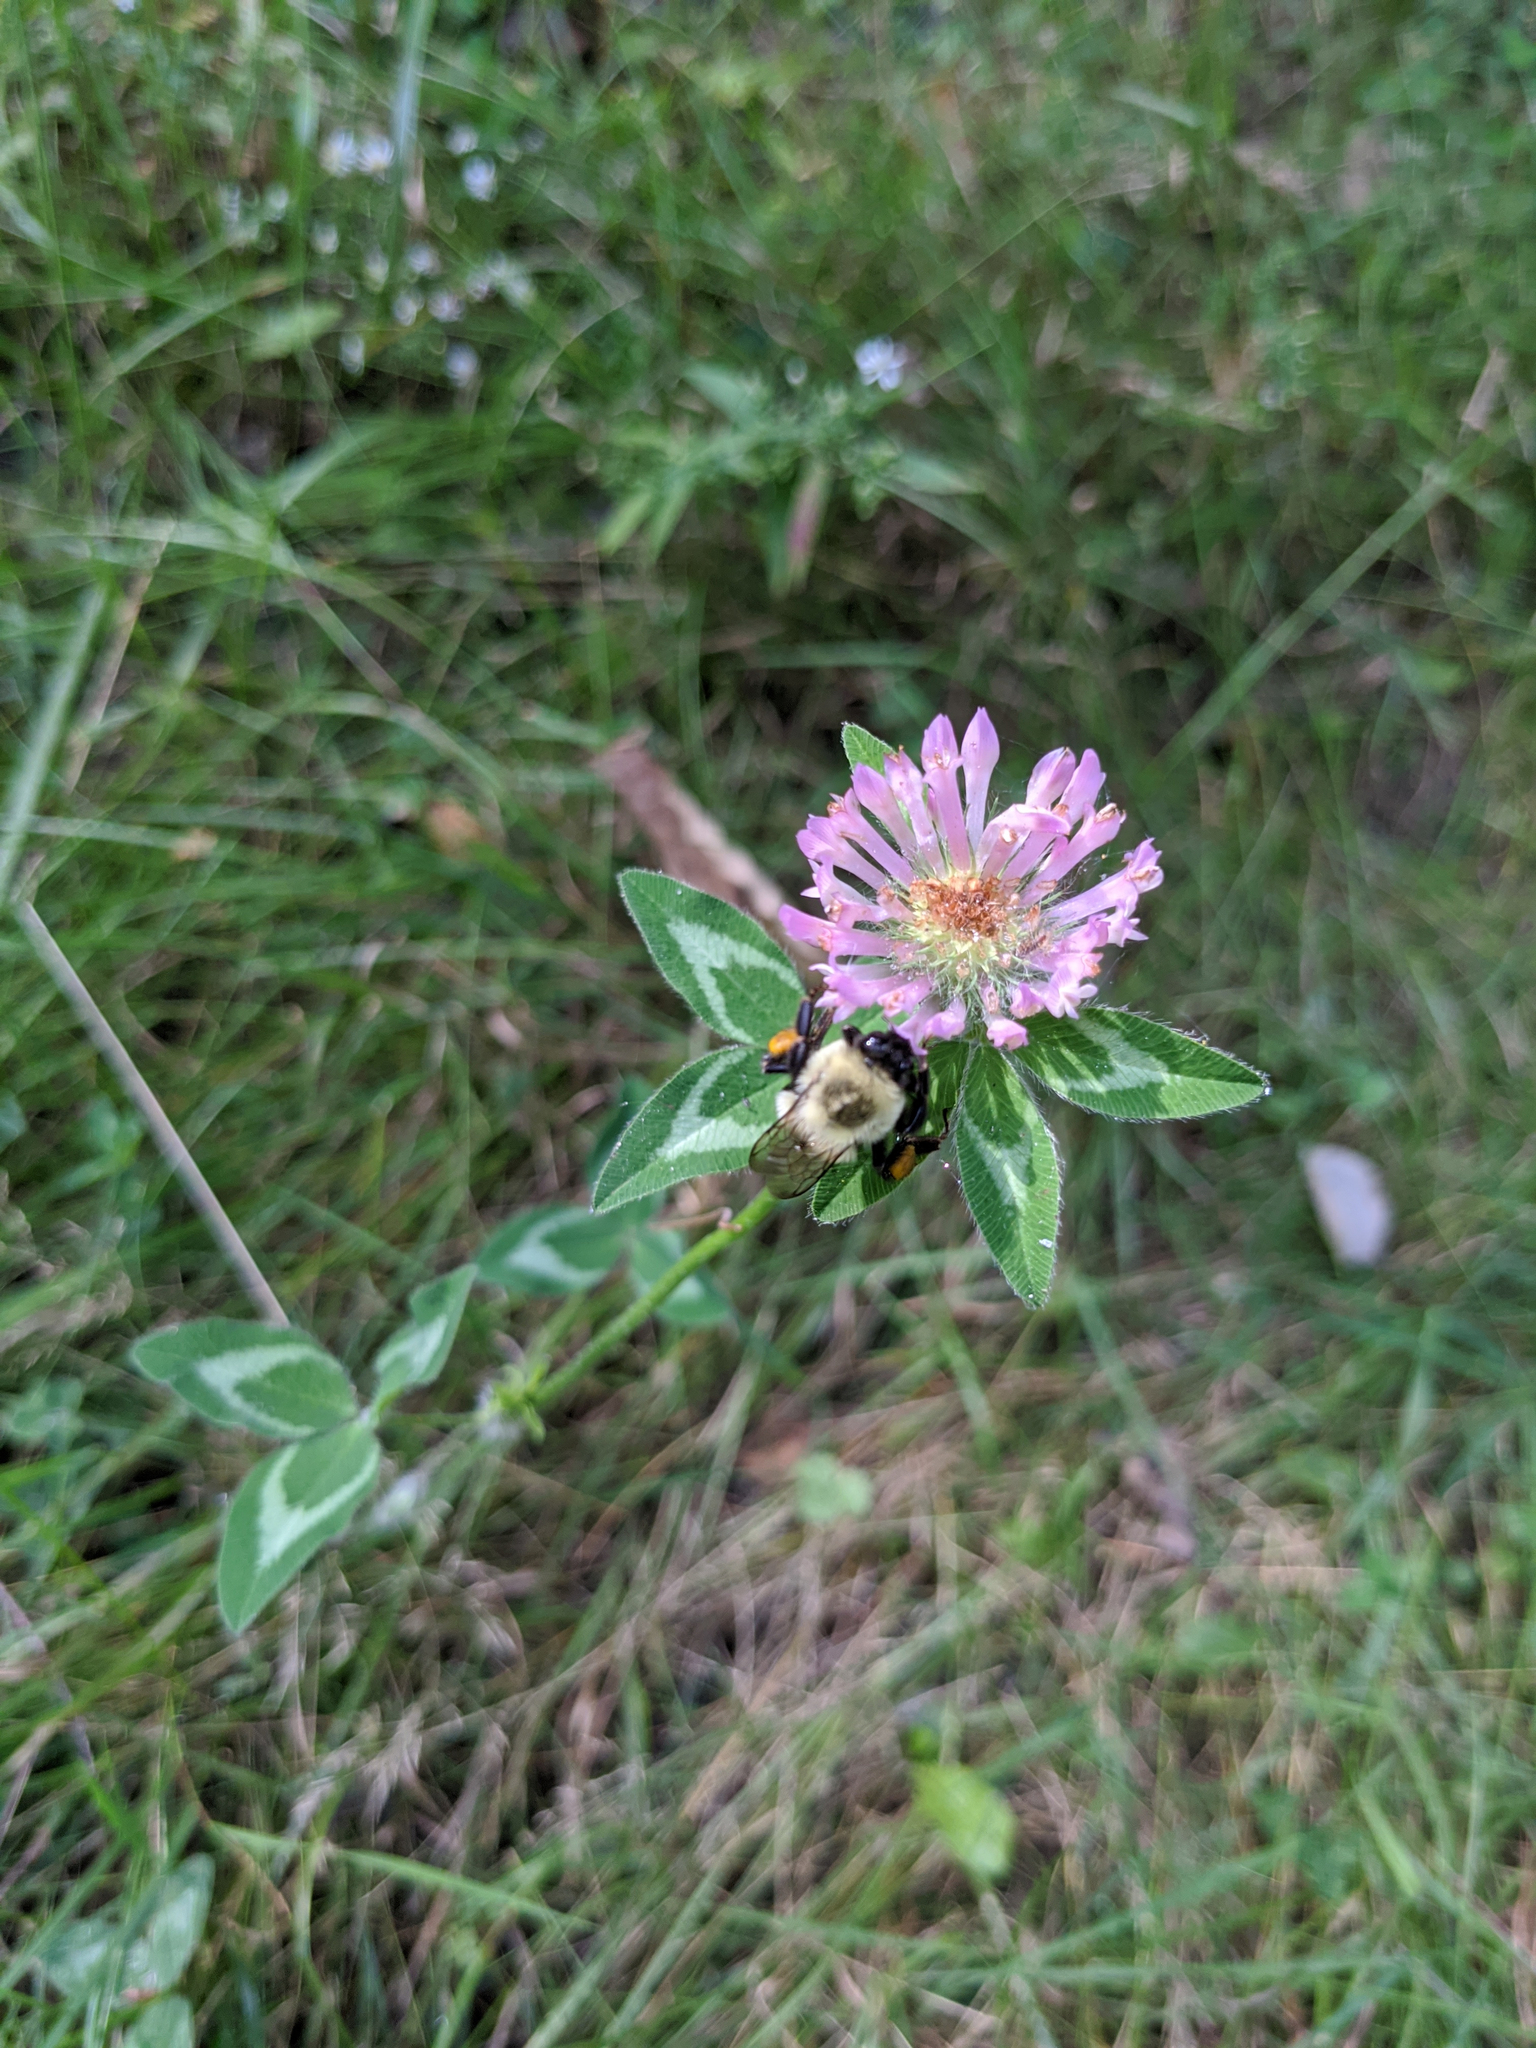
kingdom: Animalia
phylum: Arthropoda
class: Insecta
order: Hymenoptera
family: Apidae
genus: Bombus
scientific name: Bombus impatiens
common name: Common eastern bumble bee
